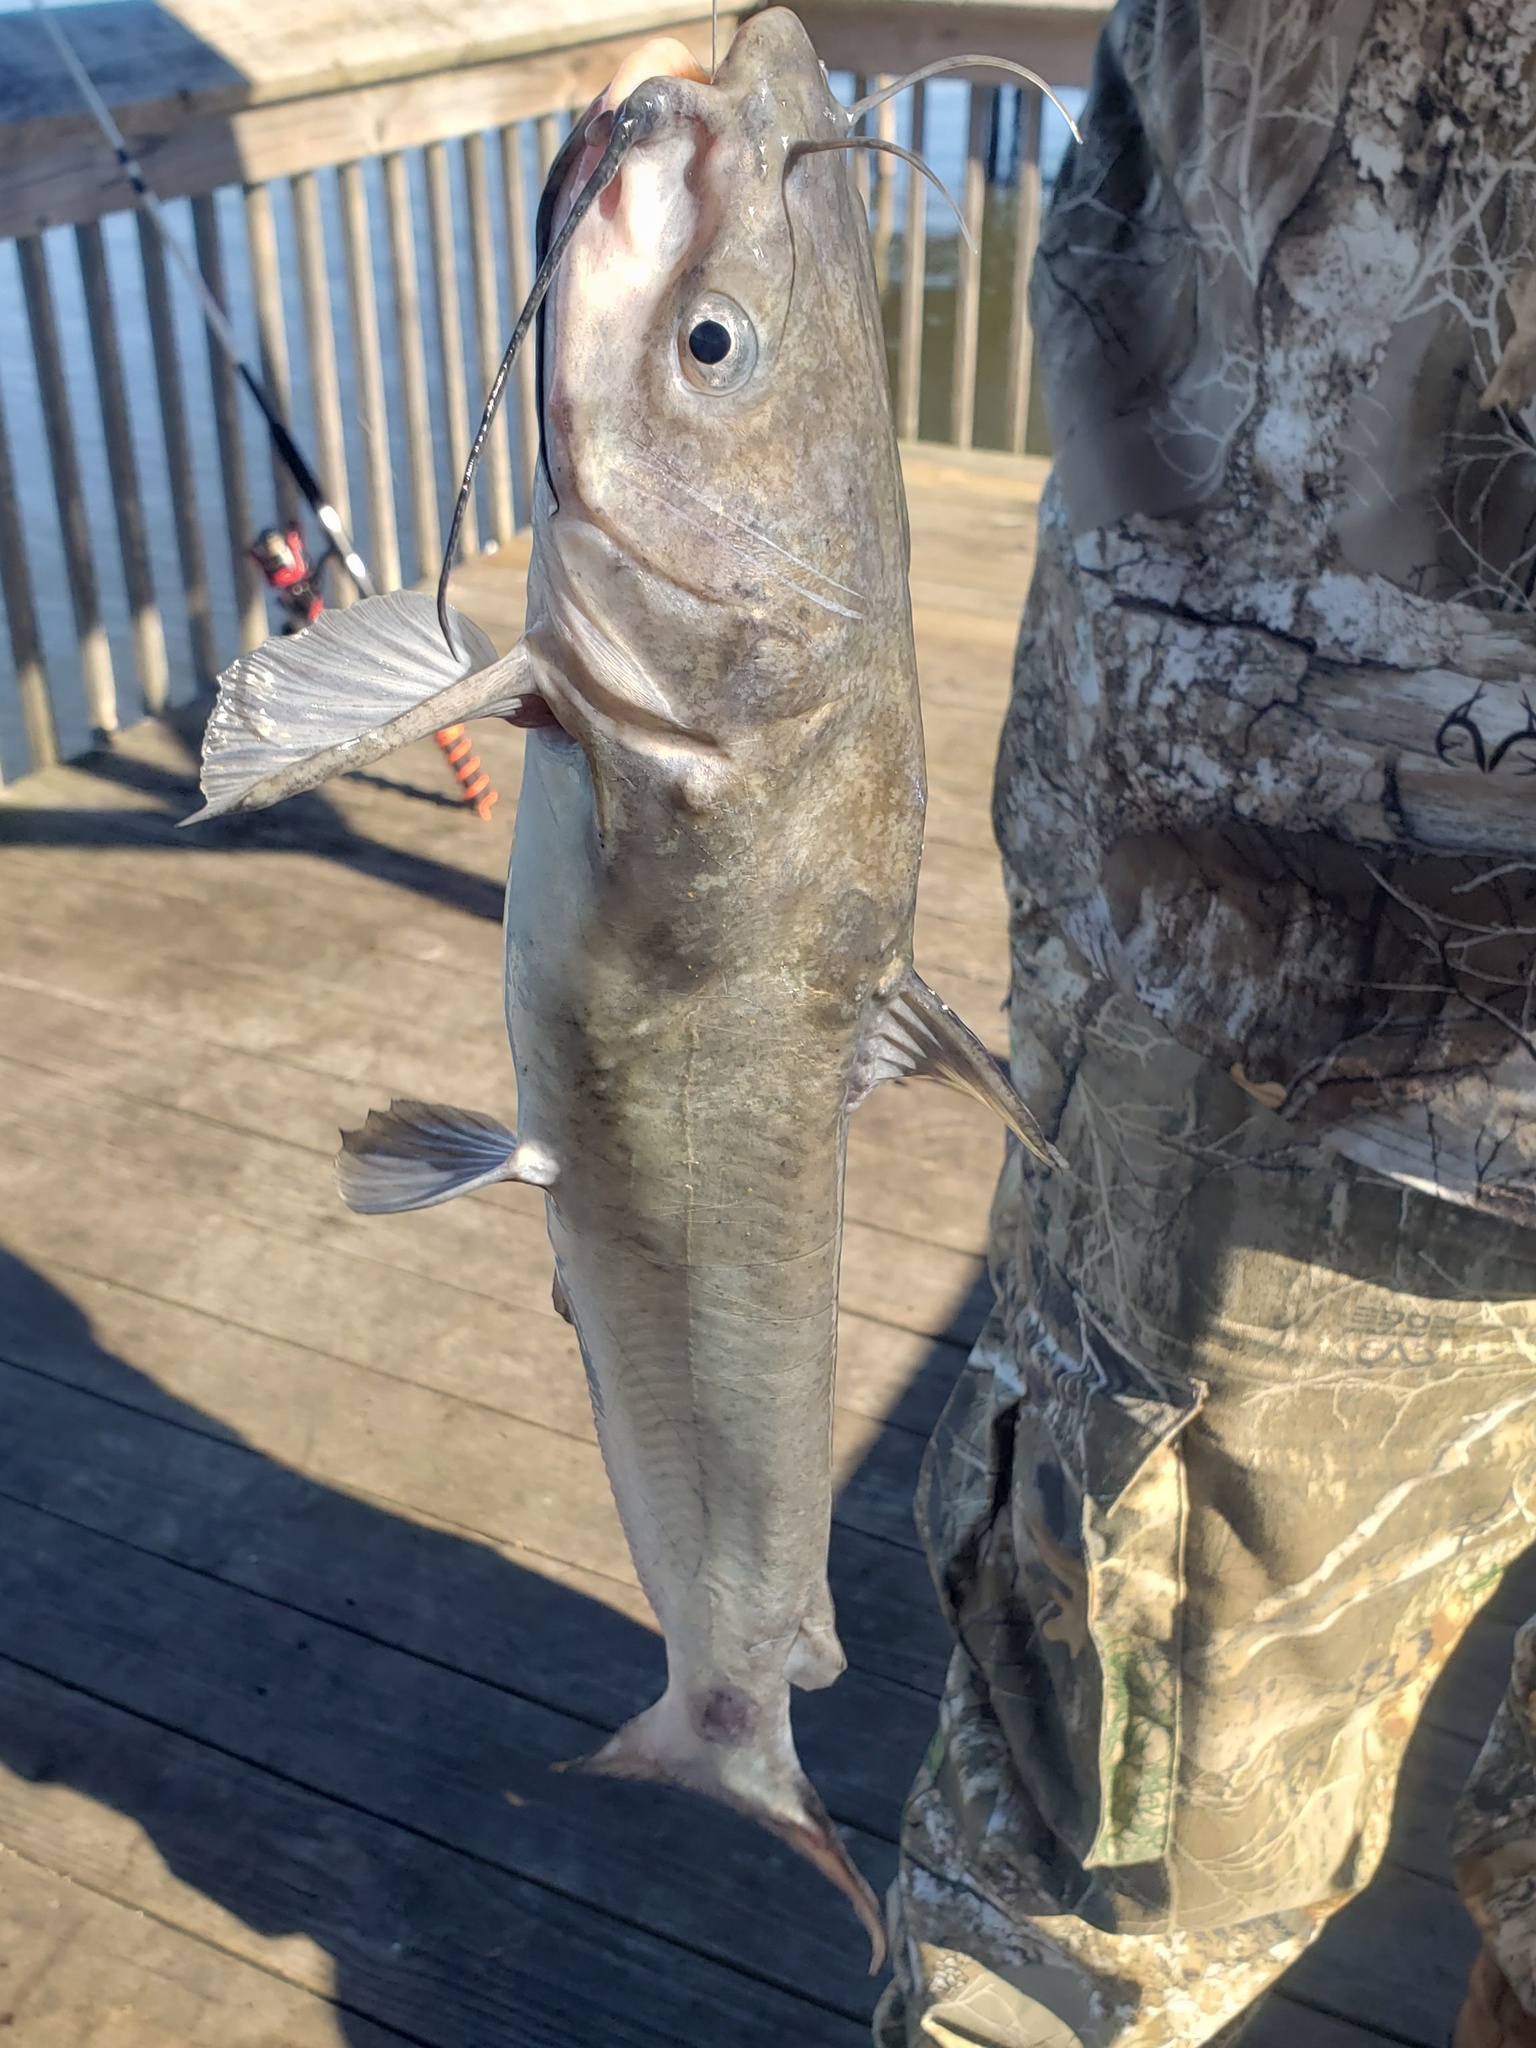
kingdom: Animalia
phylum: Chordata
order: Siluriformes
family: Ictaluridae
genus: Ictalurus
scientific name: Ictalurus punctatus
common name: Channel catfish
